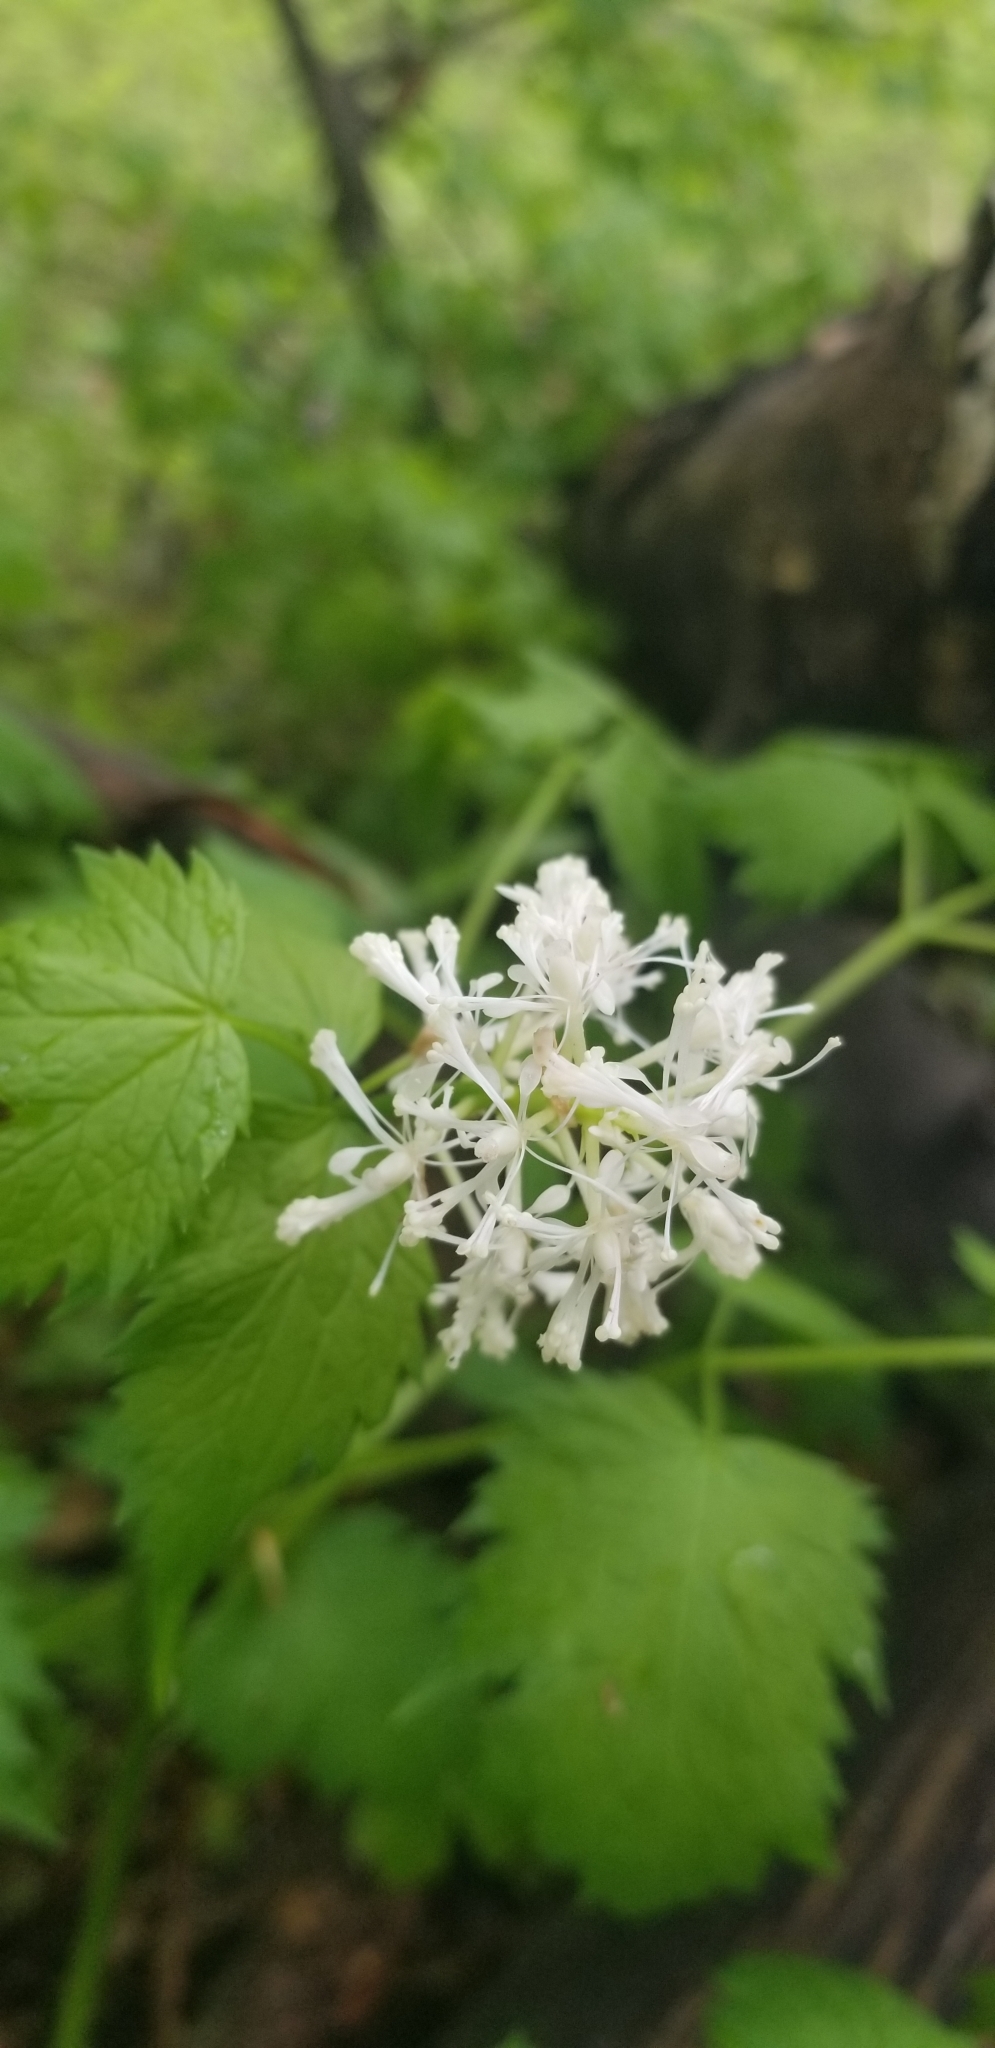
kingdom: Plantae
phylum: Tracheophyta
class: Magnoliopsida
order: Ranunculales
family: Ranunculaceae
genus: Actaea
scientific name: Actaea rubra
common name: Red baneberry
